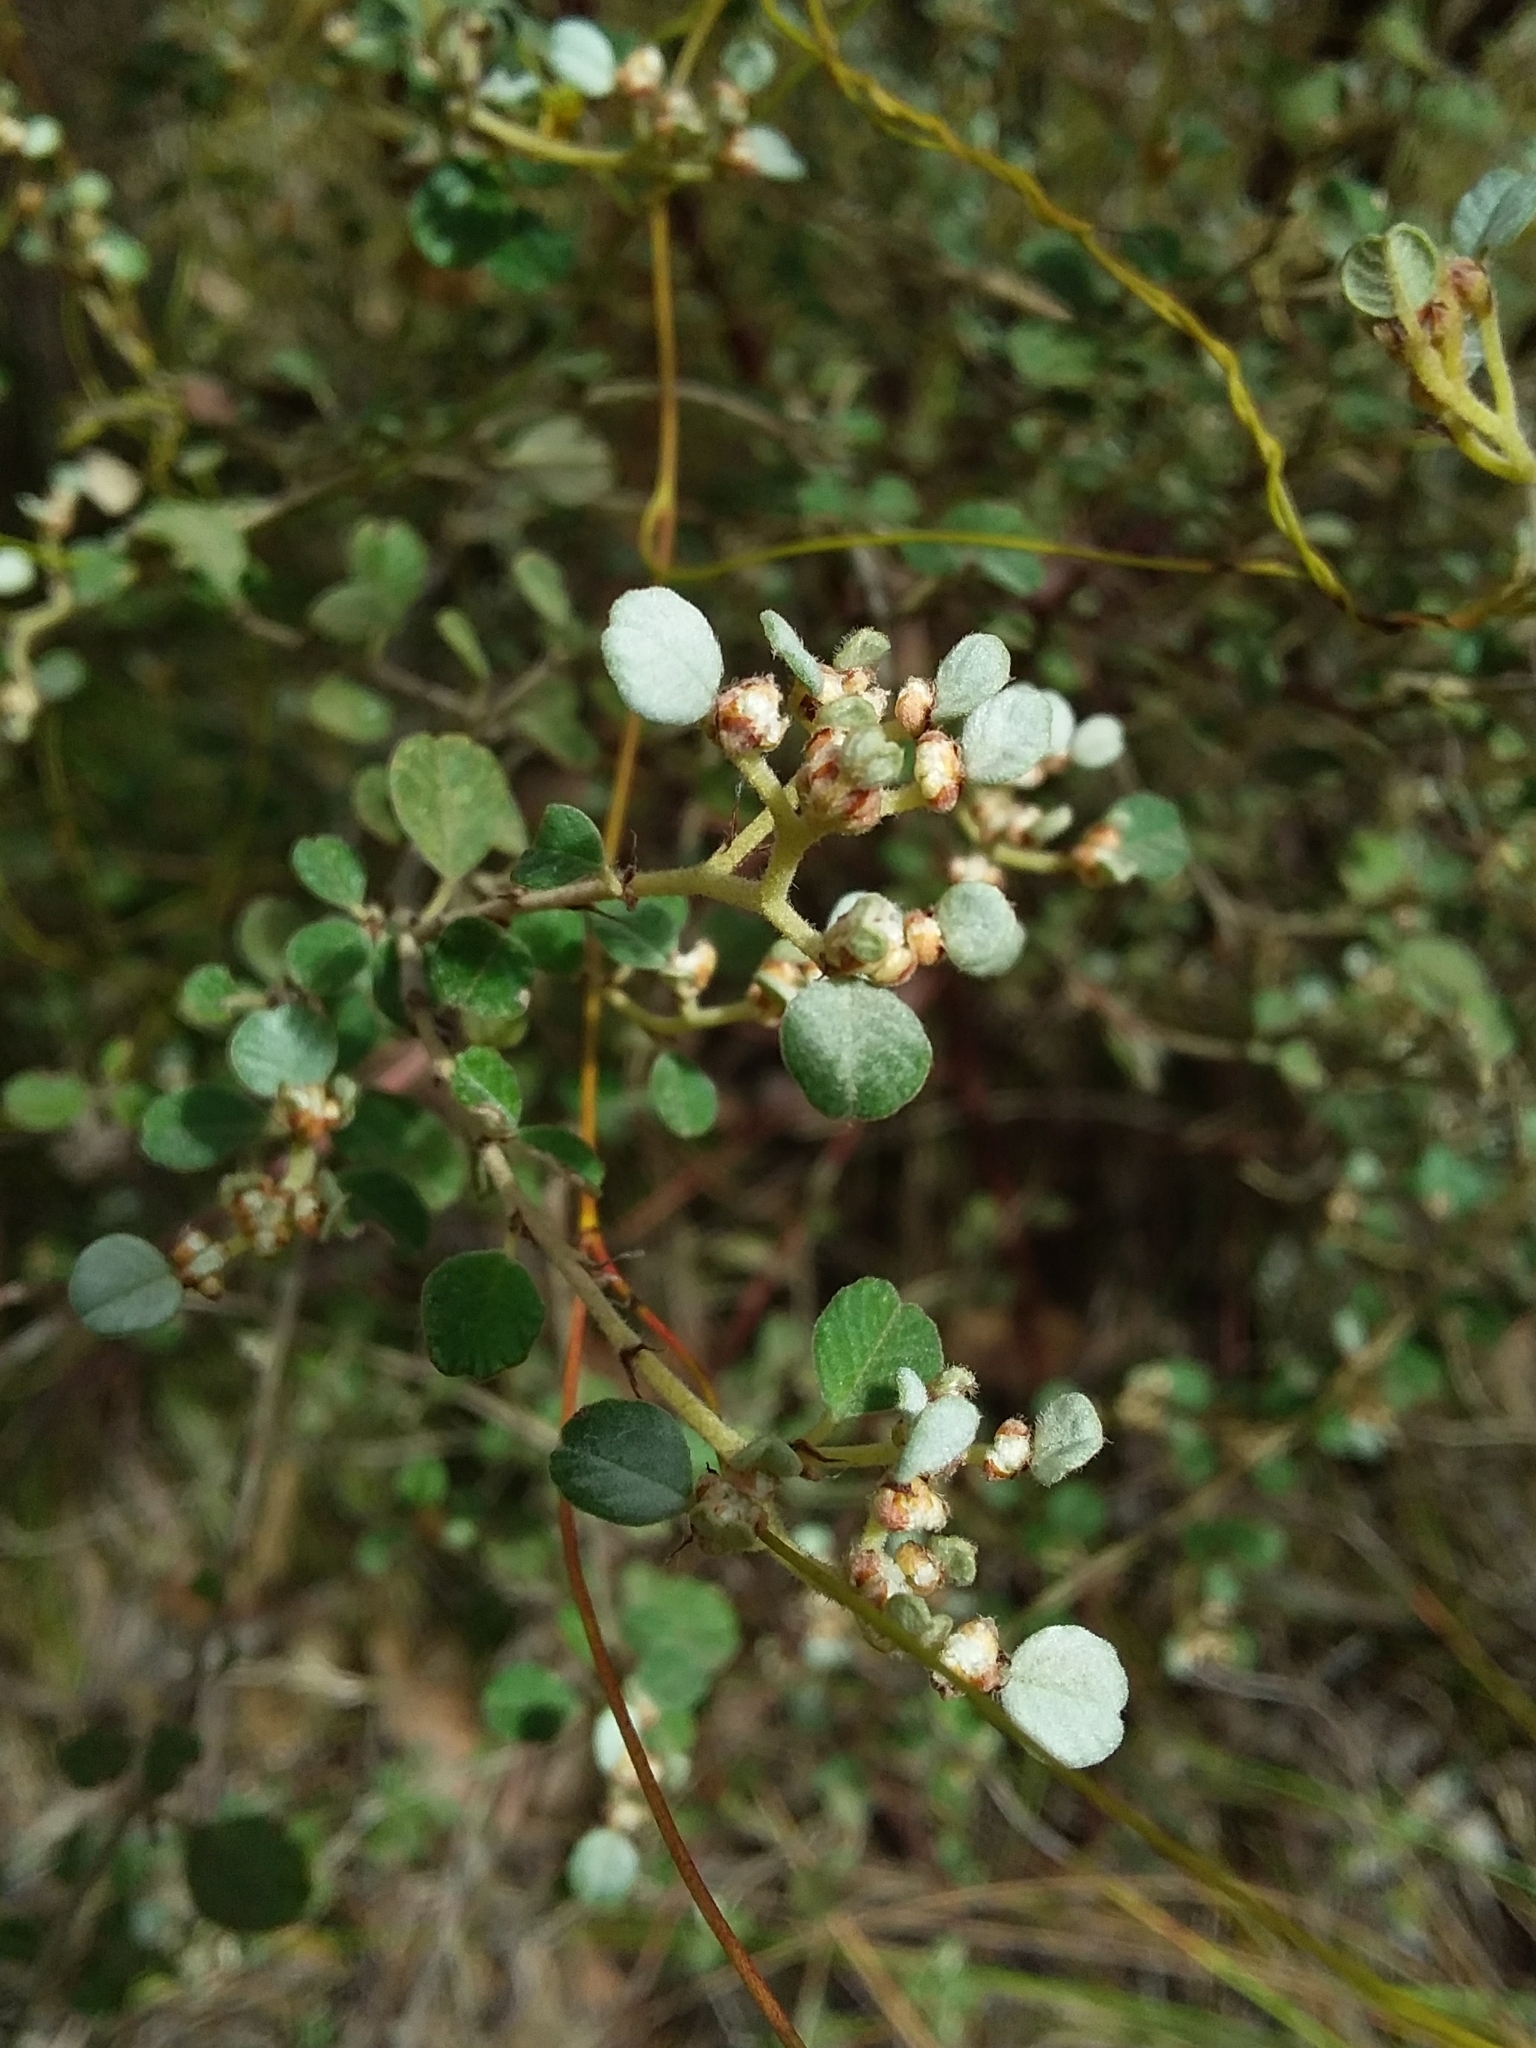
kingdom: Plantae
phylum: Tracheophyta
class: Magnoliopsida
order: Rosales
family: Rhamnaceae
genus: Spyridium
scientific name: Spyridium parvifolium
